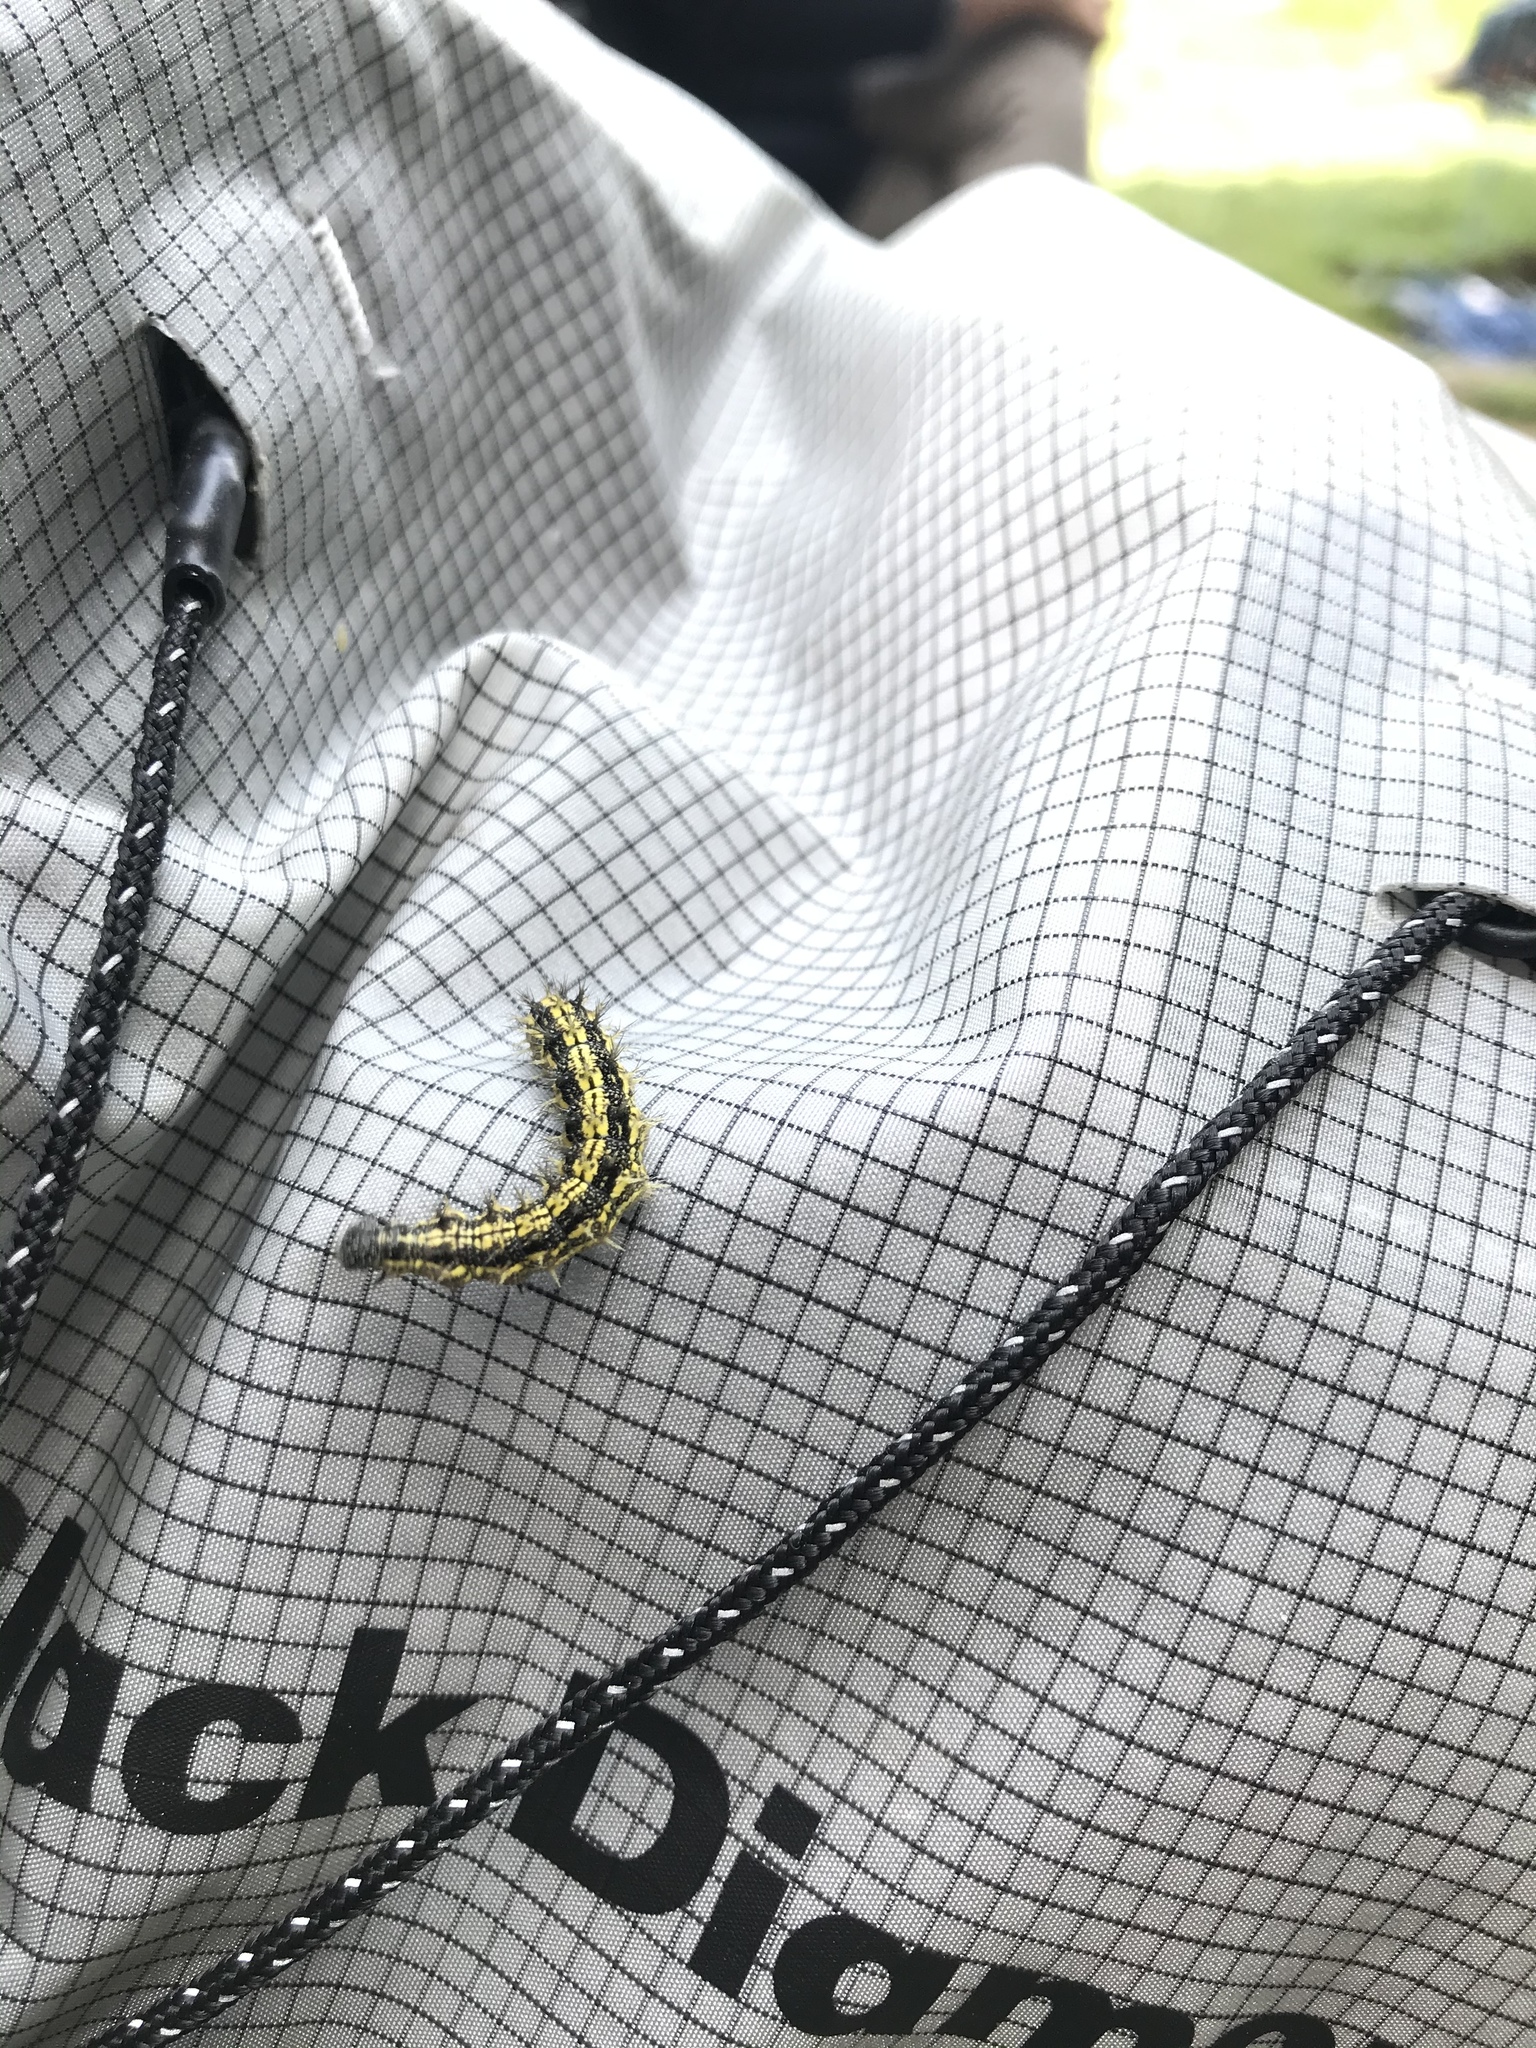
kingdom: Animalia
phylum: Arthropoda
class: Insecta
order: Lepidoptera
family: Nymphalidae
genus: Aglais
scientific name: Aglais urticae
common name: Small tortoiseshell
